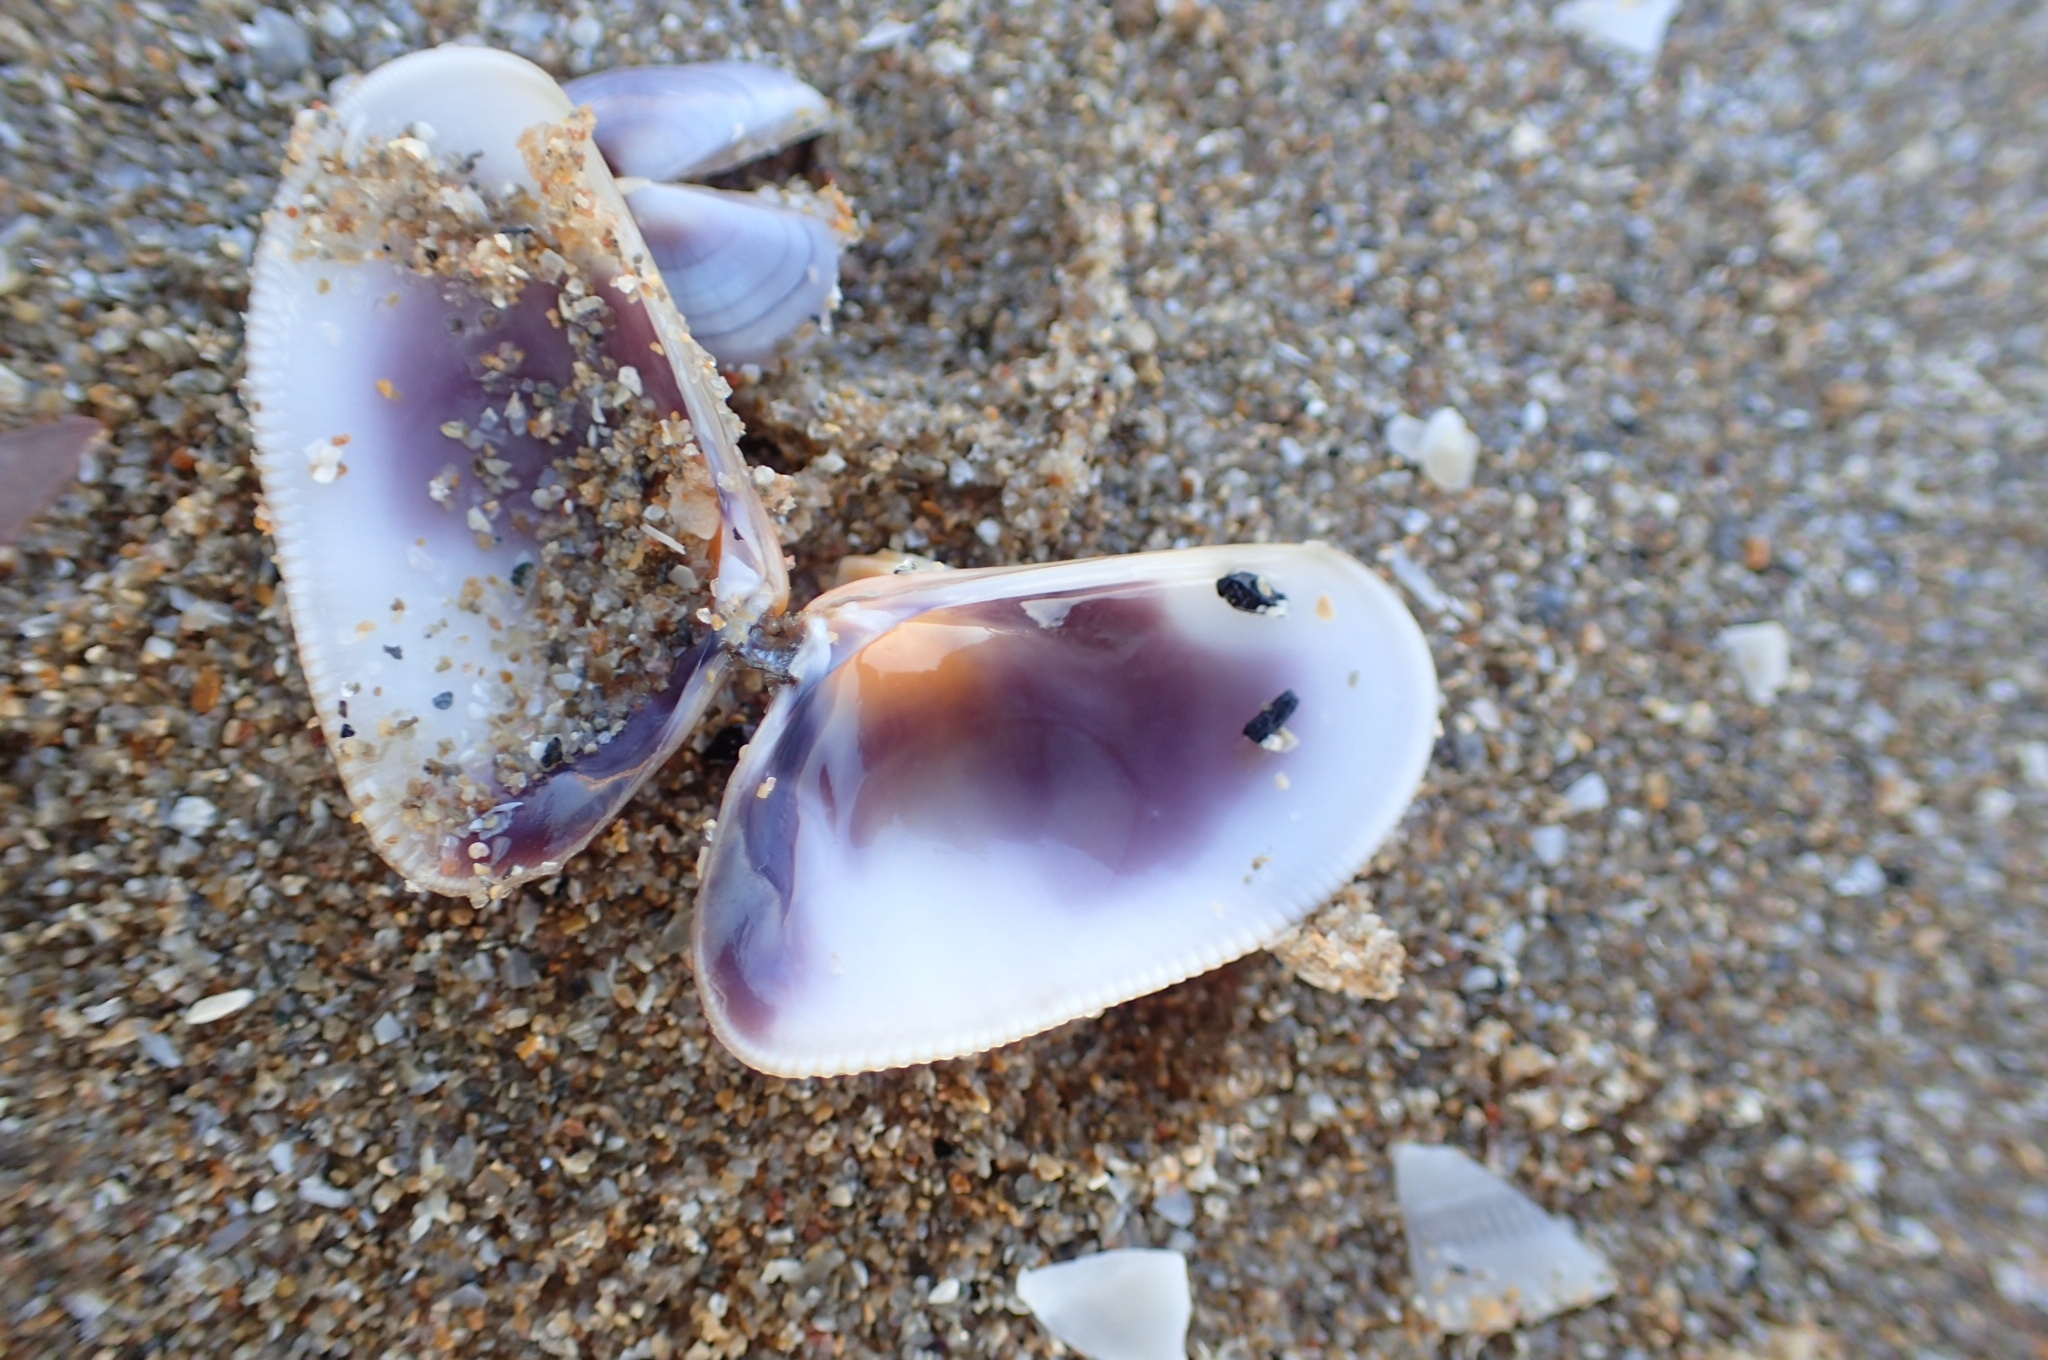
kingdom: Animalia
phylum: Mollusca
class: Bivalvia
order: Cardiida
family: Donacidae
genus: Donax
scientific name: Donax trunculus
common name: Truncate donax
